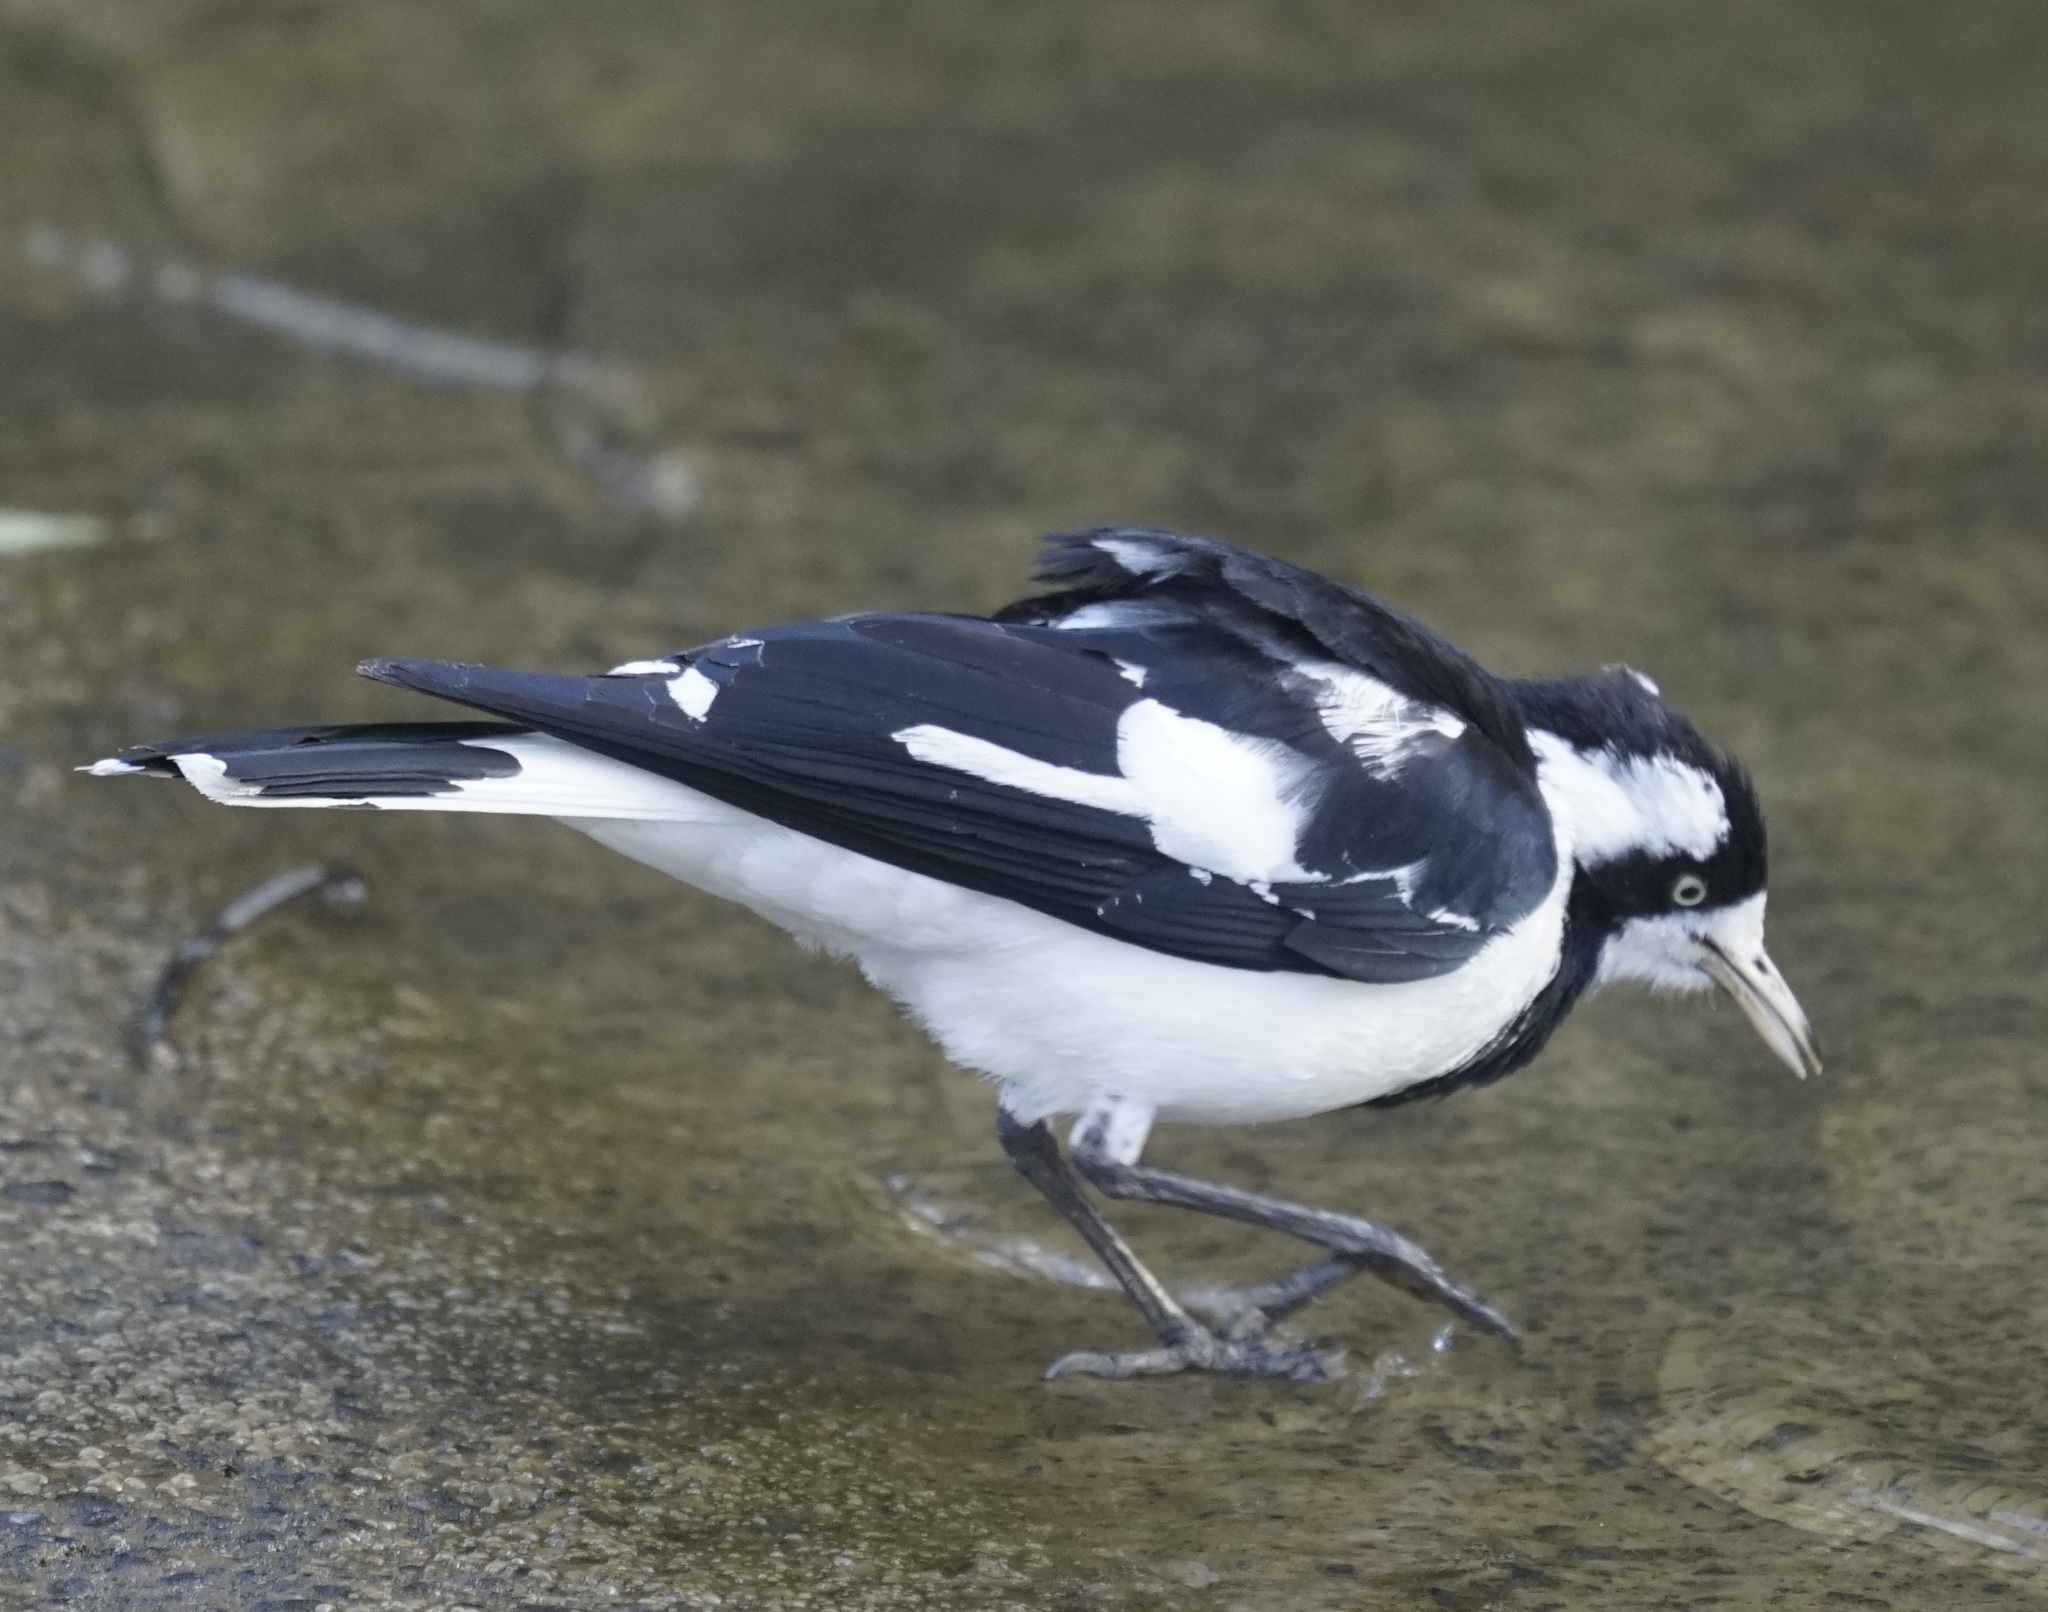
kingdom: Animalia
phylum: Chordata
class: Aves
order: Passeriformes
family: Monarchidae
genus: Grallina
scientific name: Grallina cyanoleuca
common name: Magpie-lark
